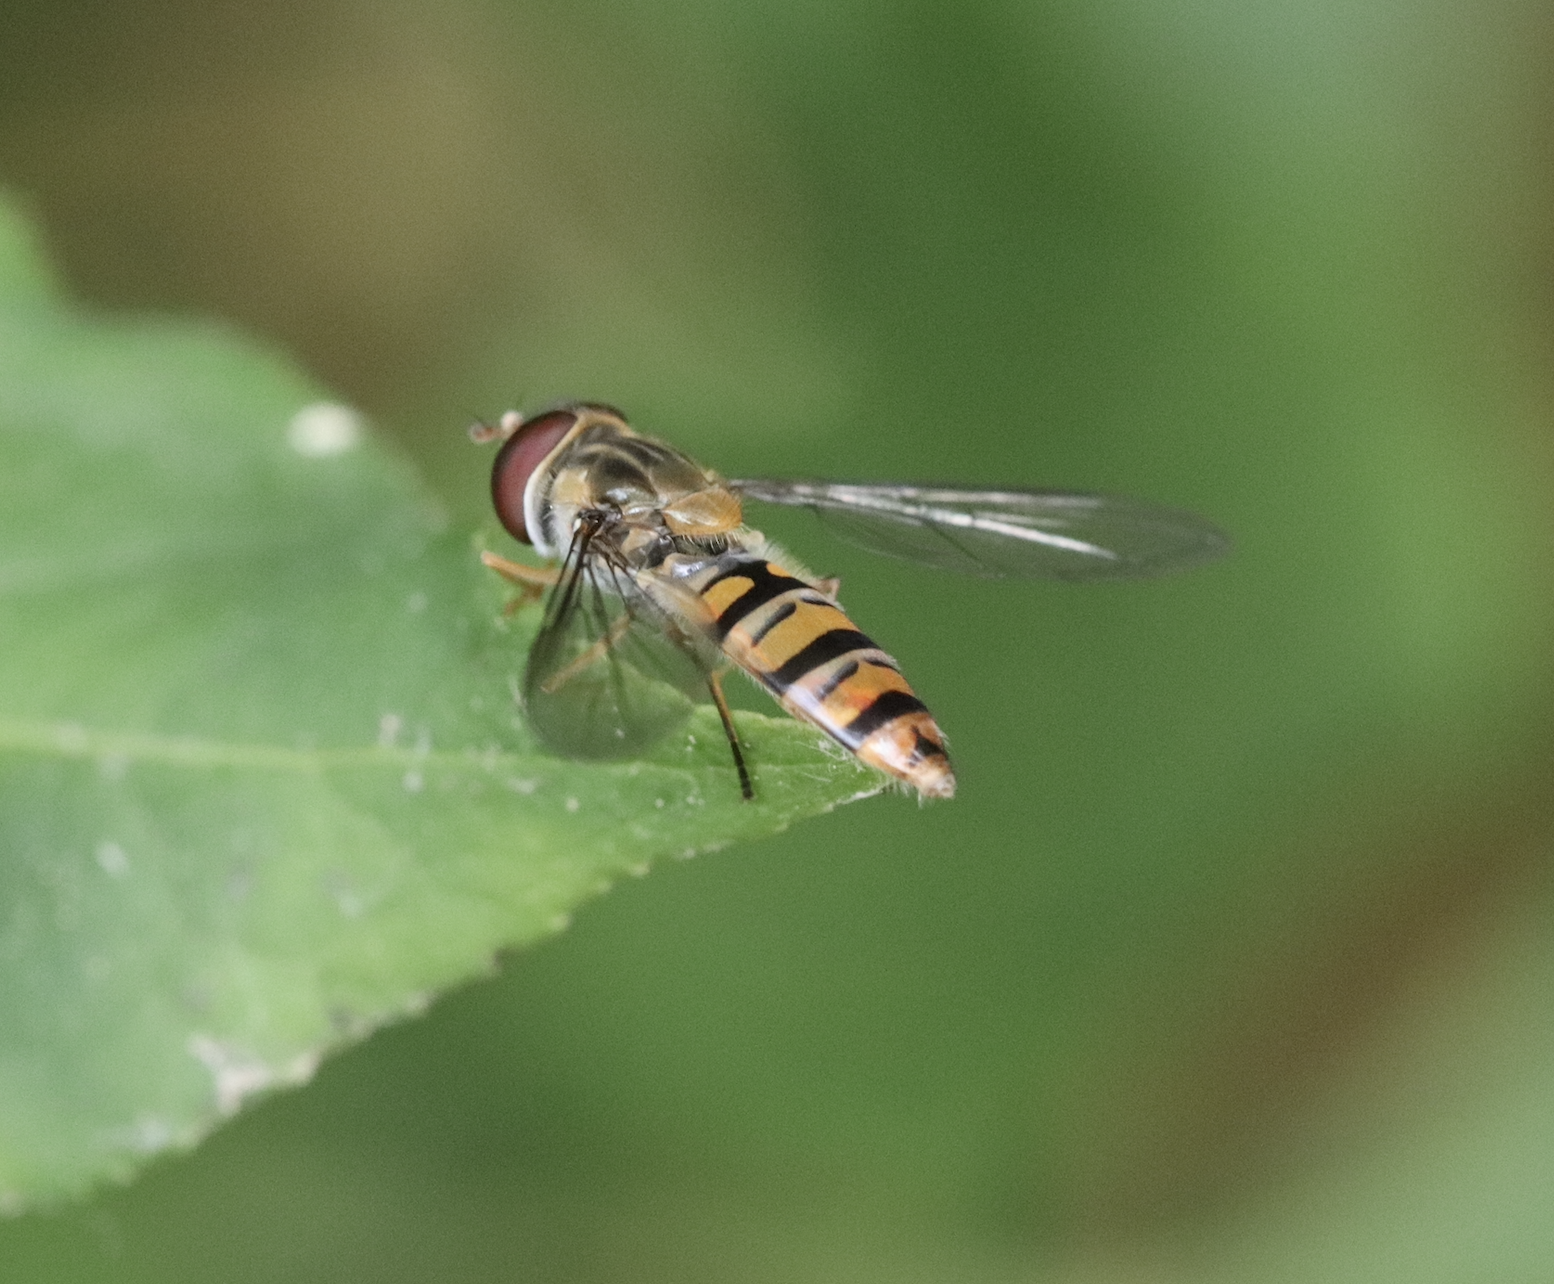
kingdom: Animalia
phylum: Arthropoda
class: Insecta
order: Diptera
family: Syrphidae
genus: Episyrphus
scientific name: Episyrphus balteatus
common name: Marmalade hoverfly
